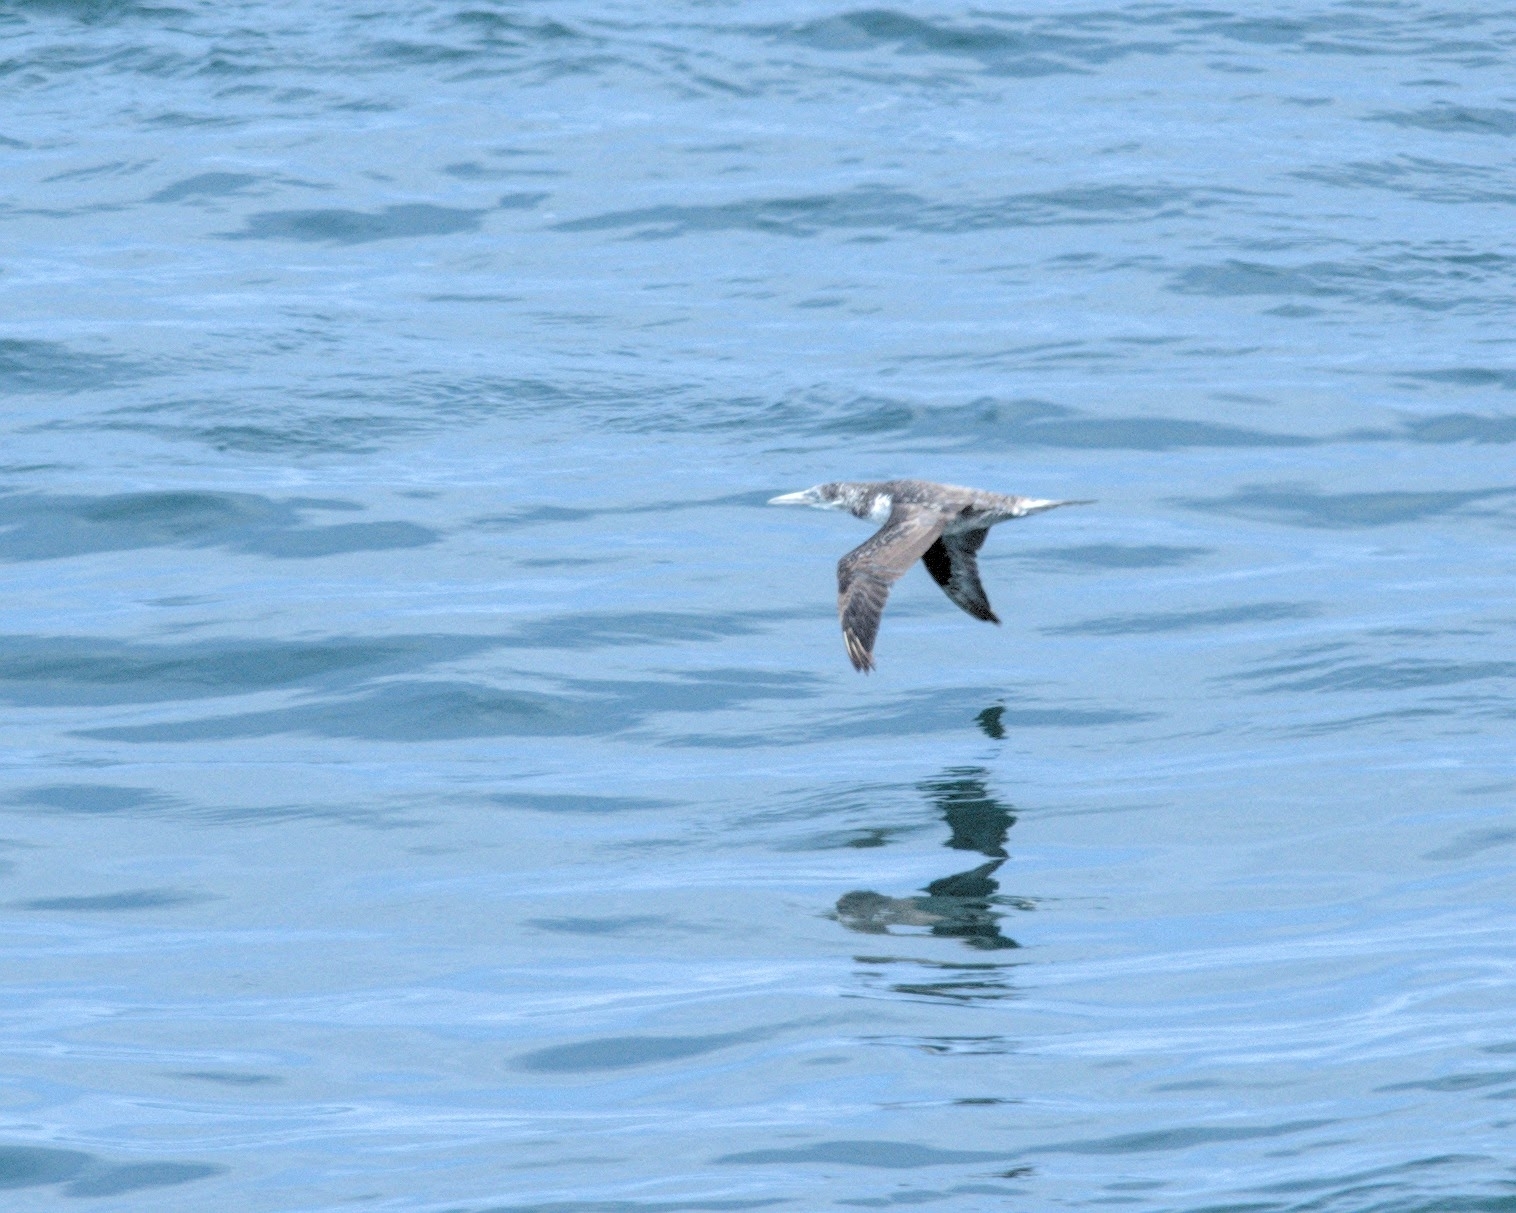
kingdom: Animalia
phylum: Chordata
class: Aves
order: Suliformes
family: Sulidae
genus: Morus
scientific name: Morus bassanus
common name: Northern gannet
